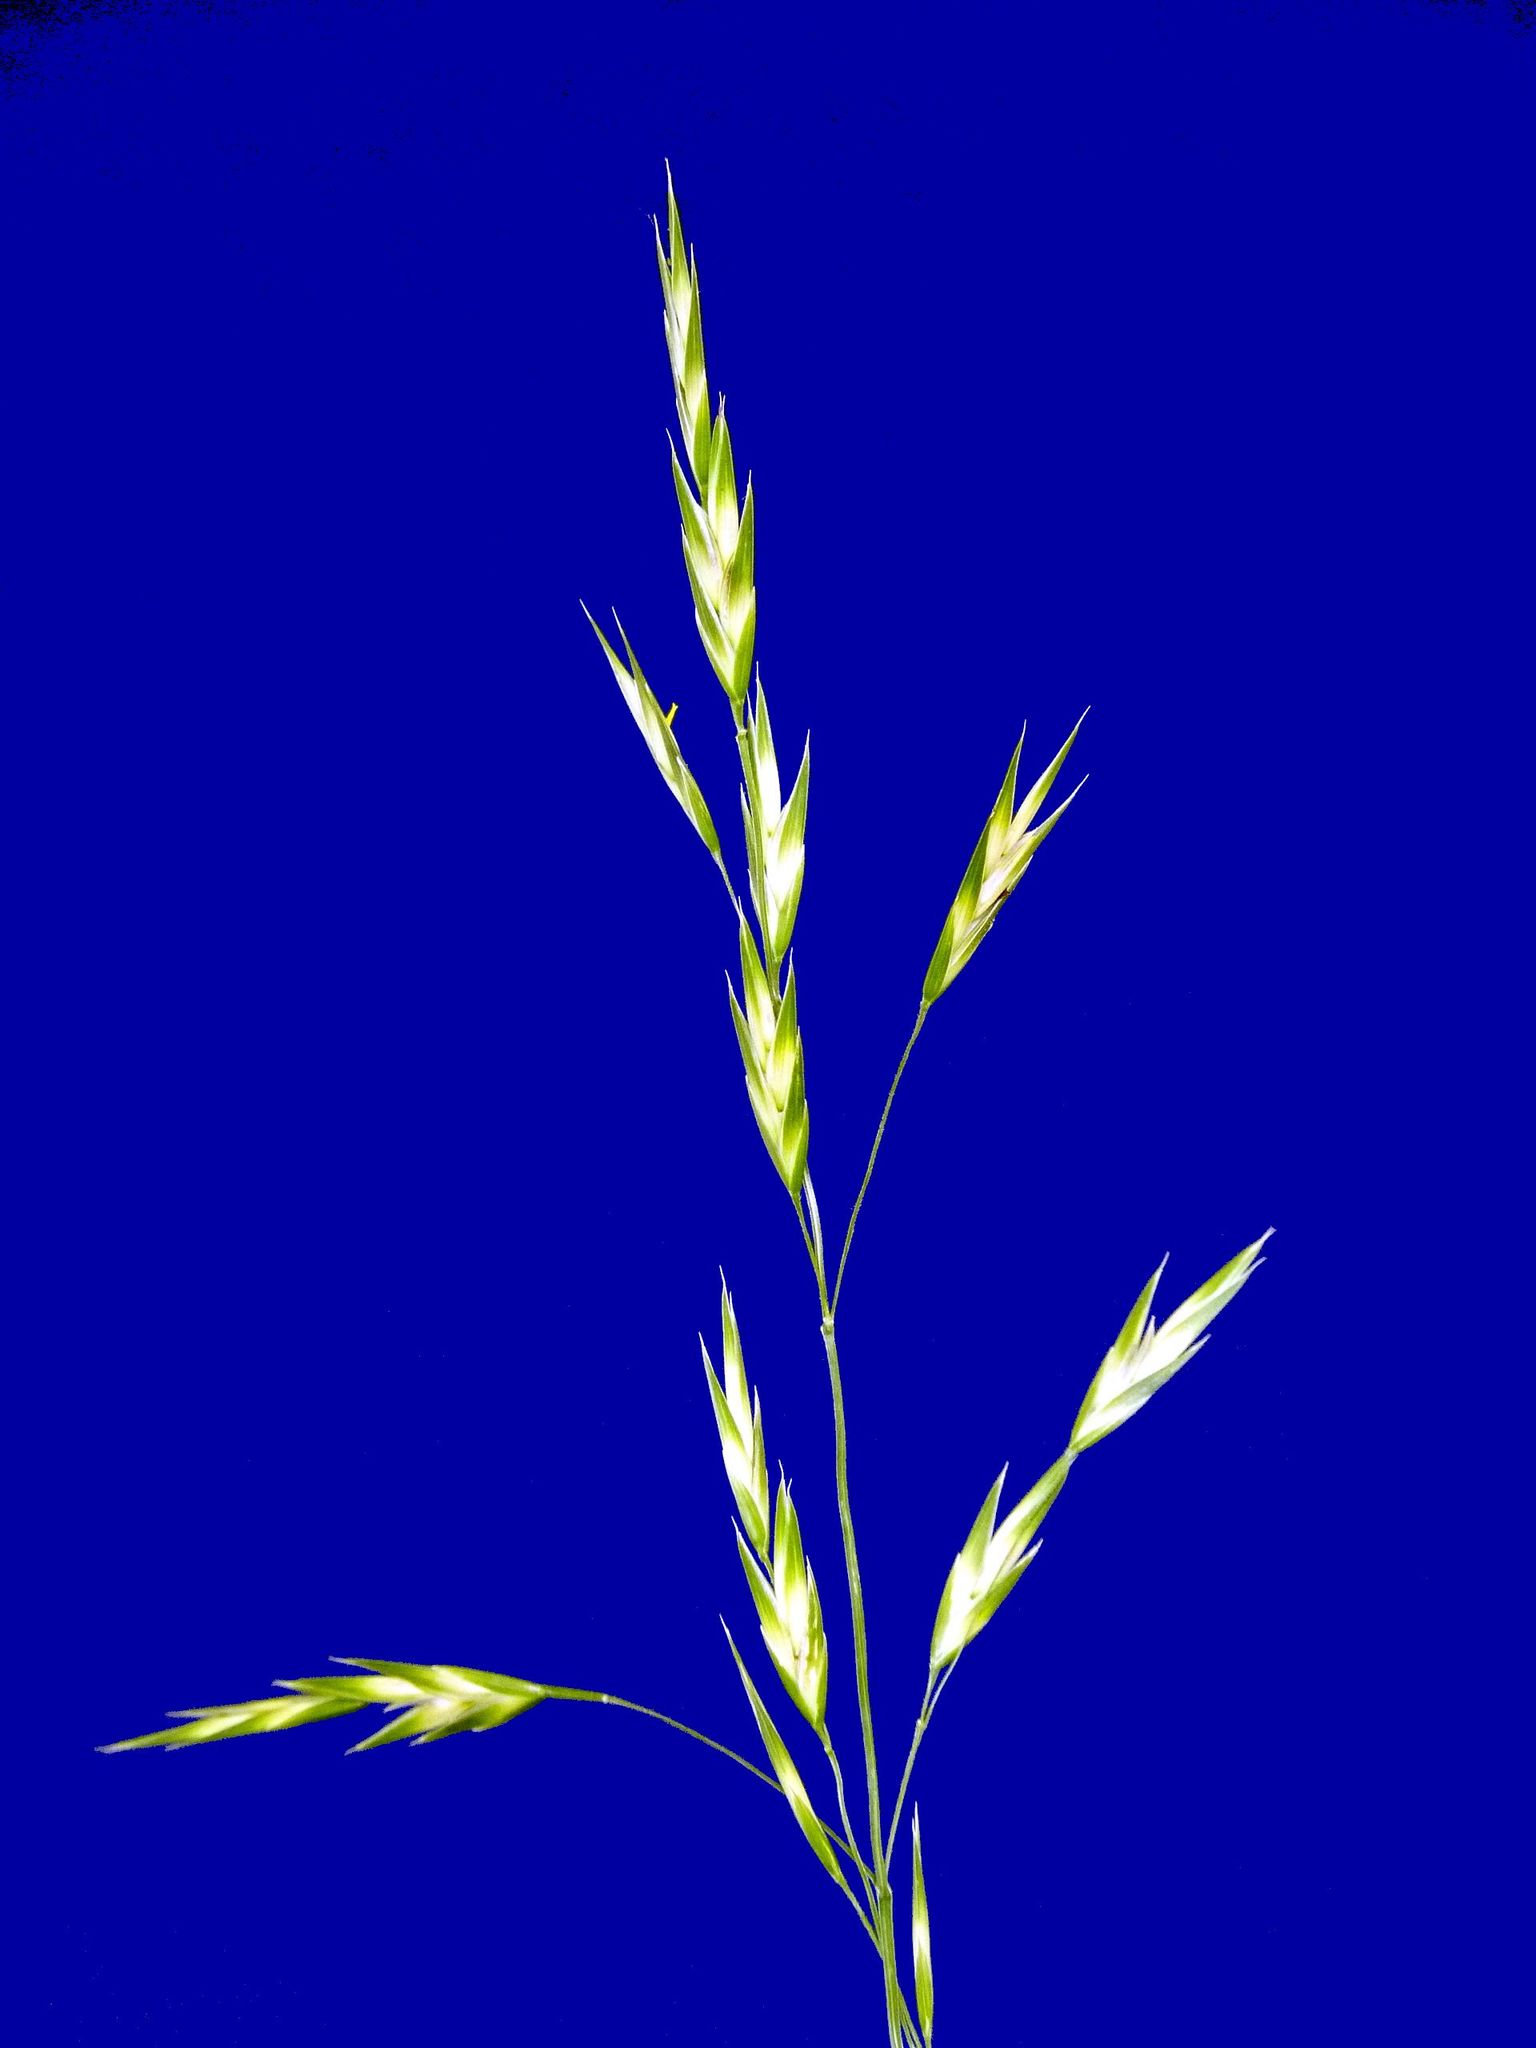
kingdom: Plantae
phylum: Tracheophyta
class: Liliopsida
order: Poales
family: Poaceae
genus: Bromus
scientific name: Bromus catharticus
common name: Rescuegrass
